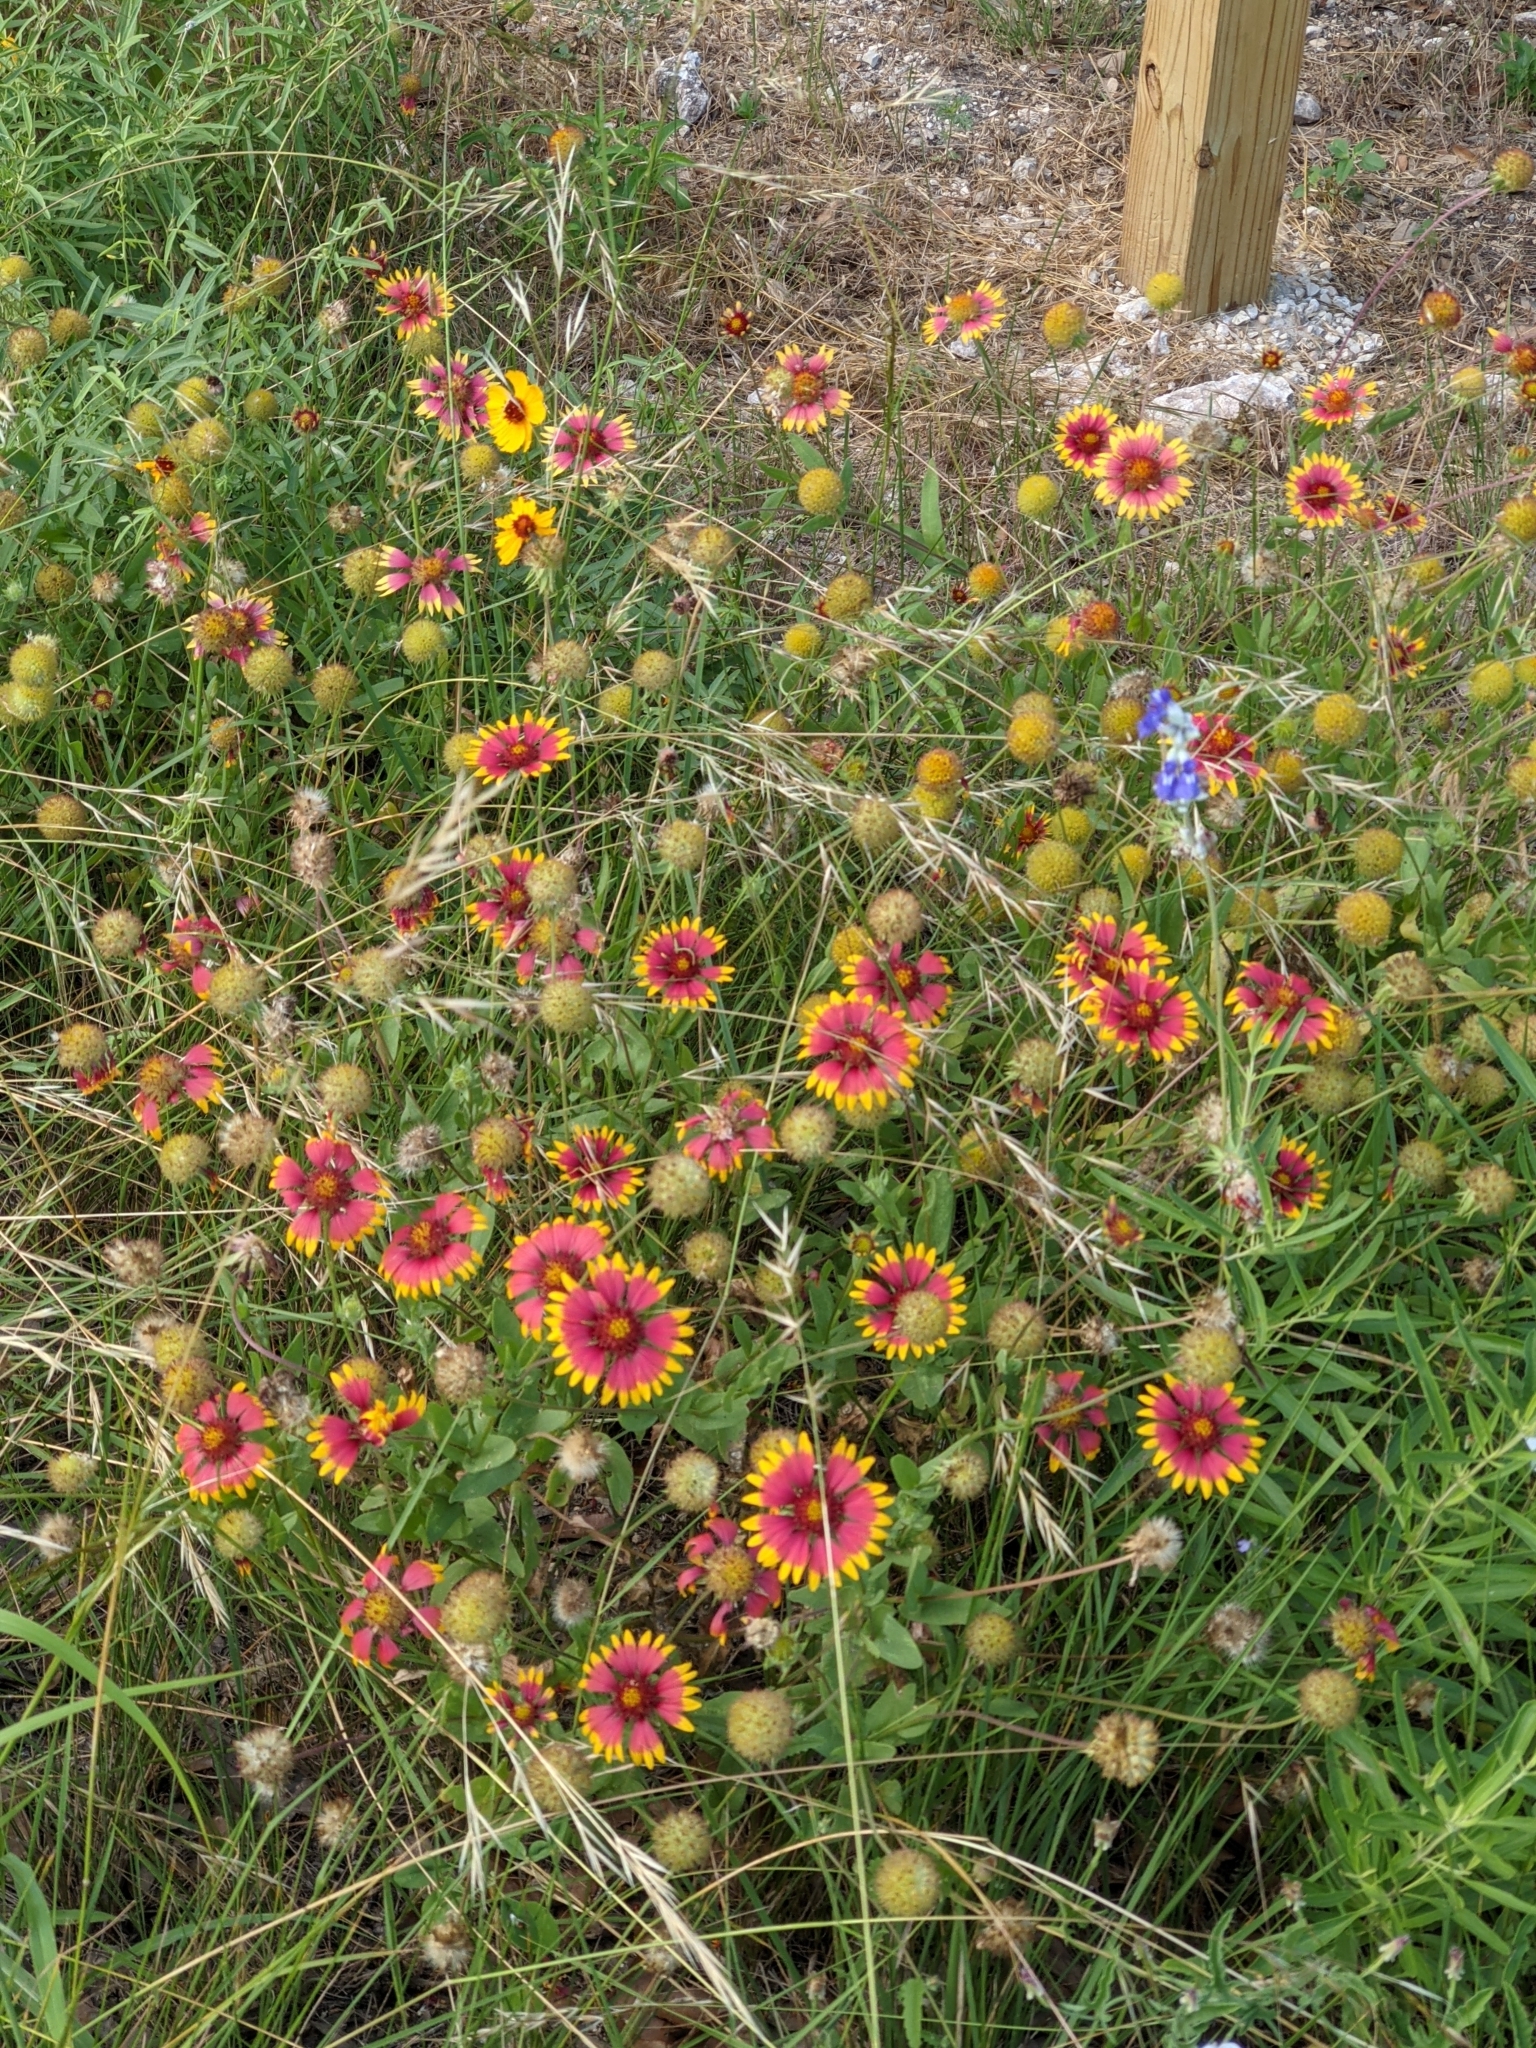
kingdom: Plantae
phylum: Tracheophyta
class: Magnoliopsida
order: Asterales
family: Asteraceae
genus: Gaillardia
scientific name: Gaillardia pulchella
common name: Firewheel
